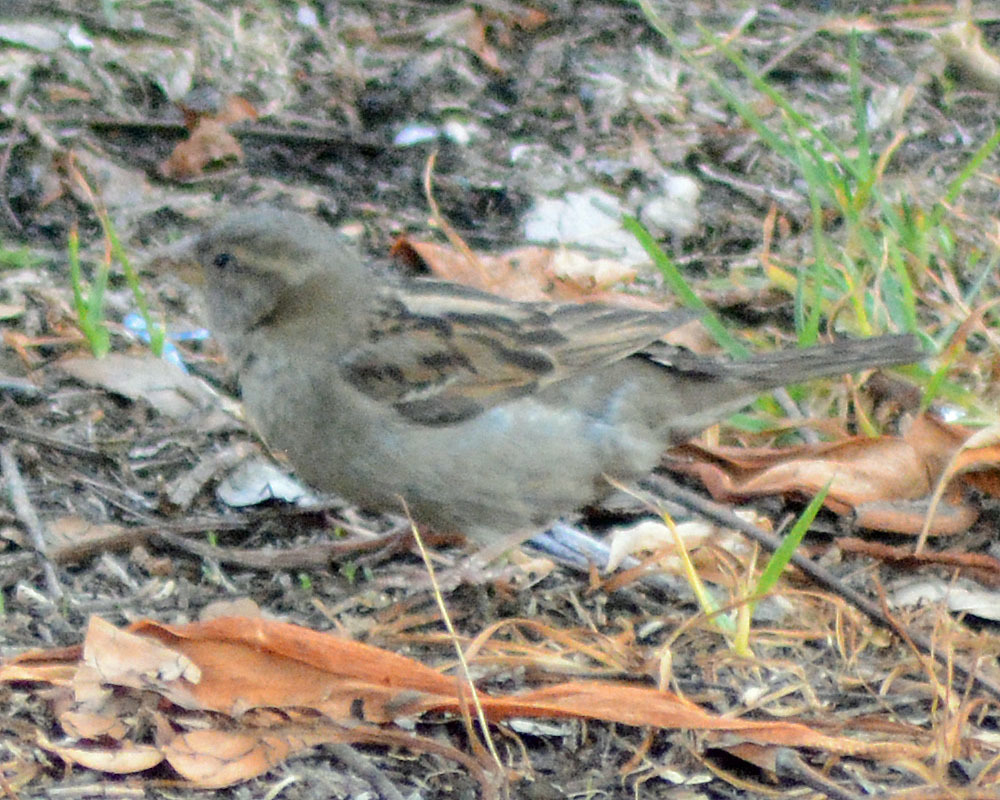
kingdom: Animalia
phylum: Chordata
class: Aves
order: Passeriformes
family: Passeridae
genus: Passer
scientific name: Passer domesticus
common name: House sparrow
